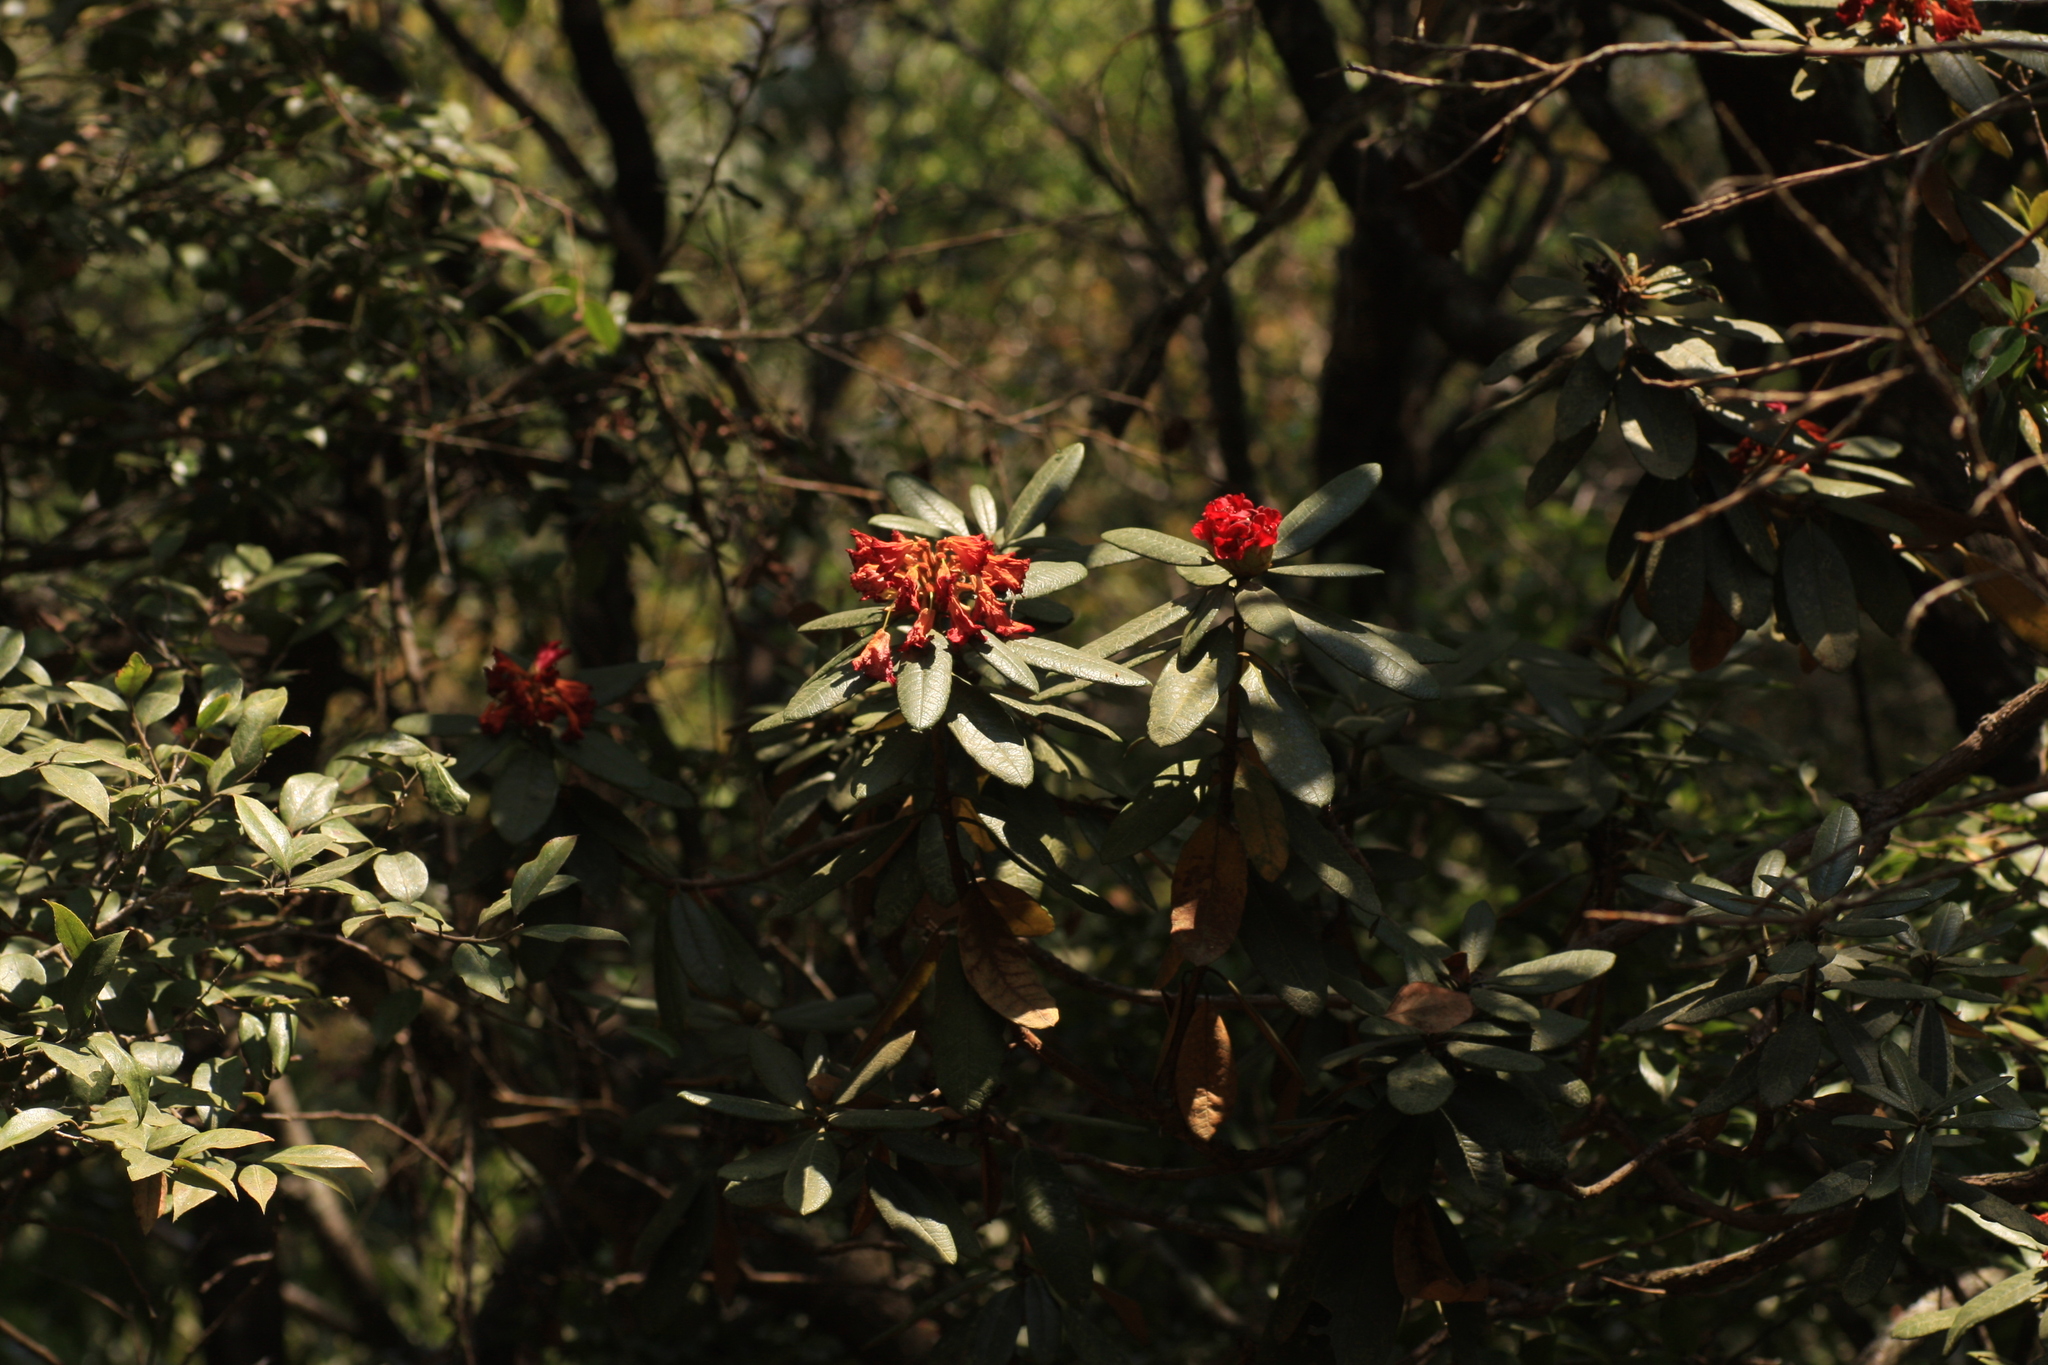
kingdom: Plantae
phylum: Tracheophyta
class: Magnoliopsida
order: Ericales
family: Ericaceae
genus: Rhododendron
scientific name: Rhododendron arboreum
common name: Tree rhododendron
